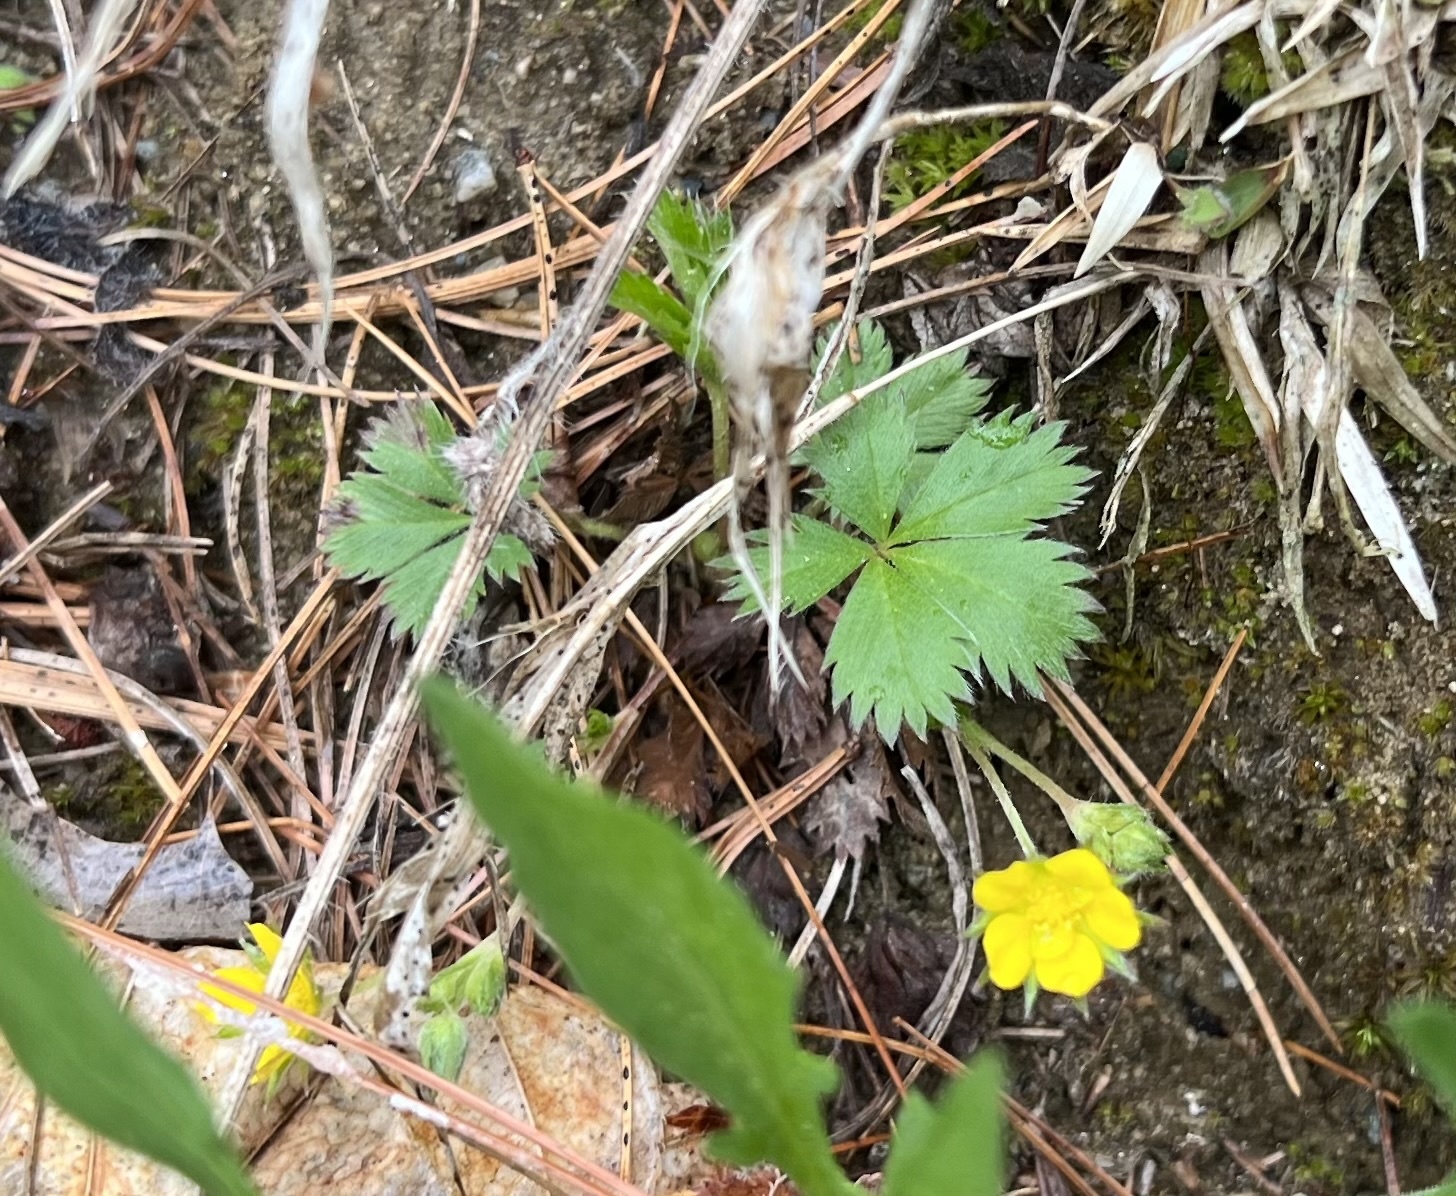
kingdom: Plantae
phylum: Tracheophyta
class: Magnoliopsida
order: Rosales
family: Rosaceae
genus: Potentilla
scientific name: Potentilla canadensis
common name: Canada cinquefoil
